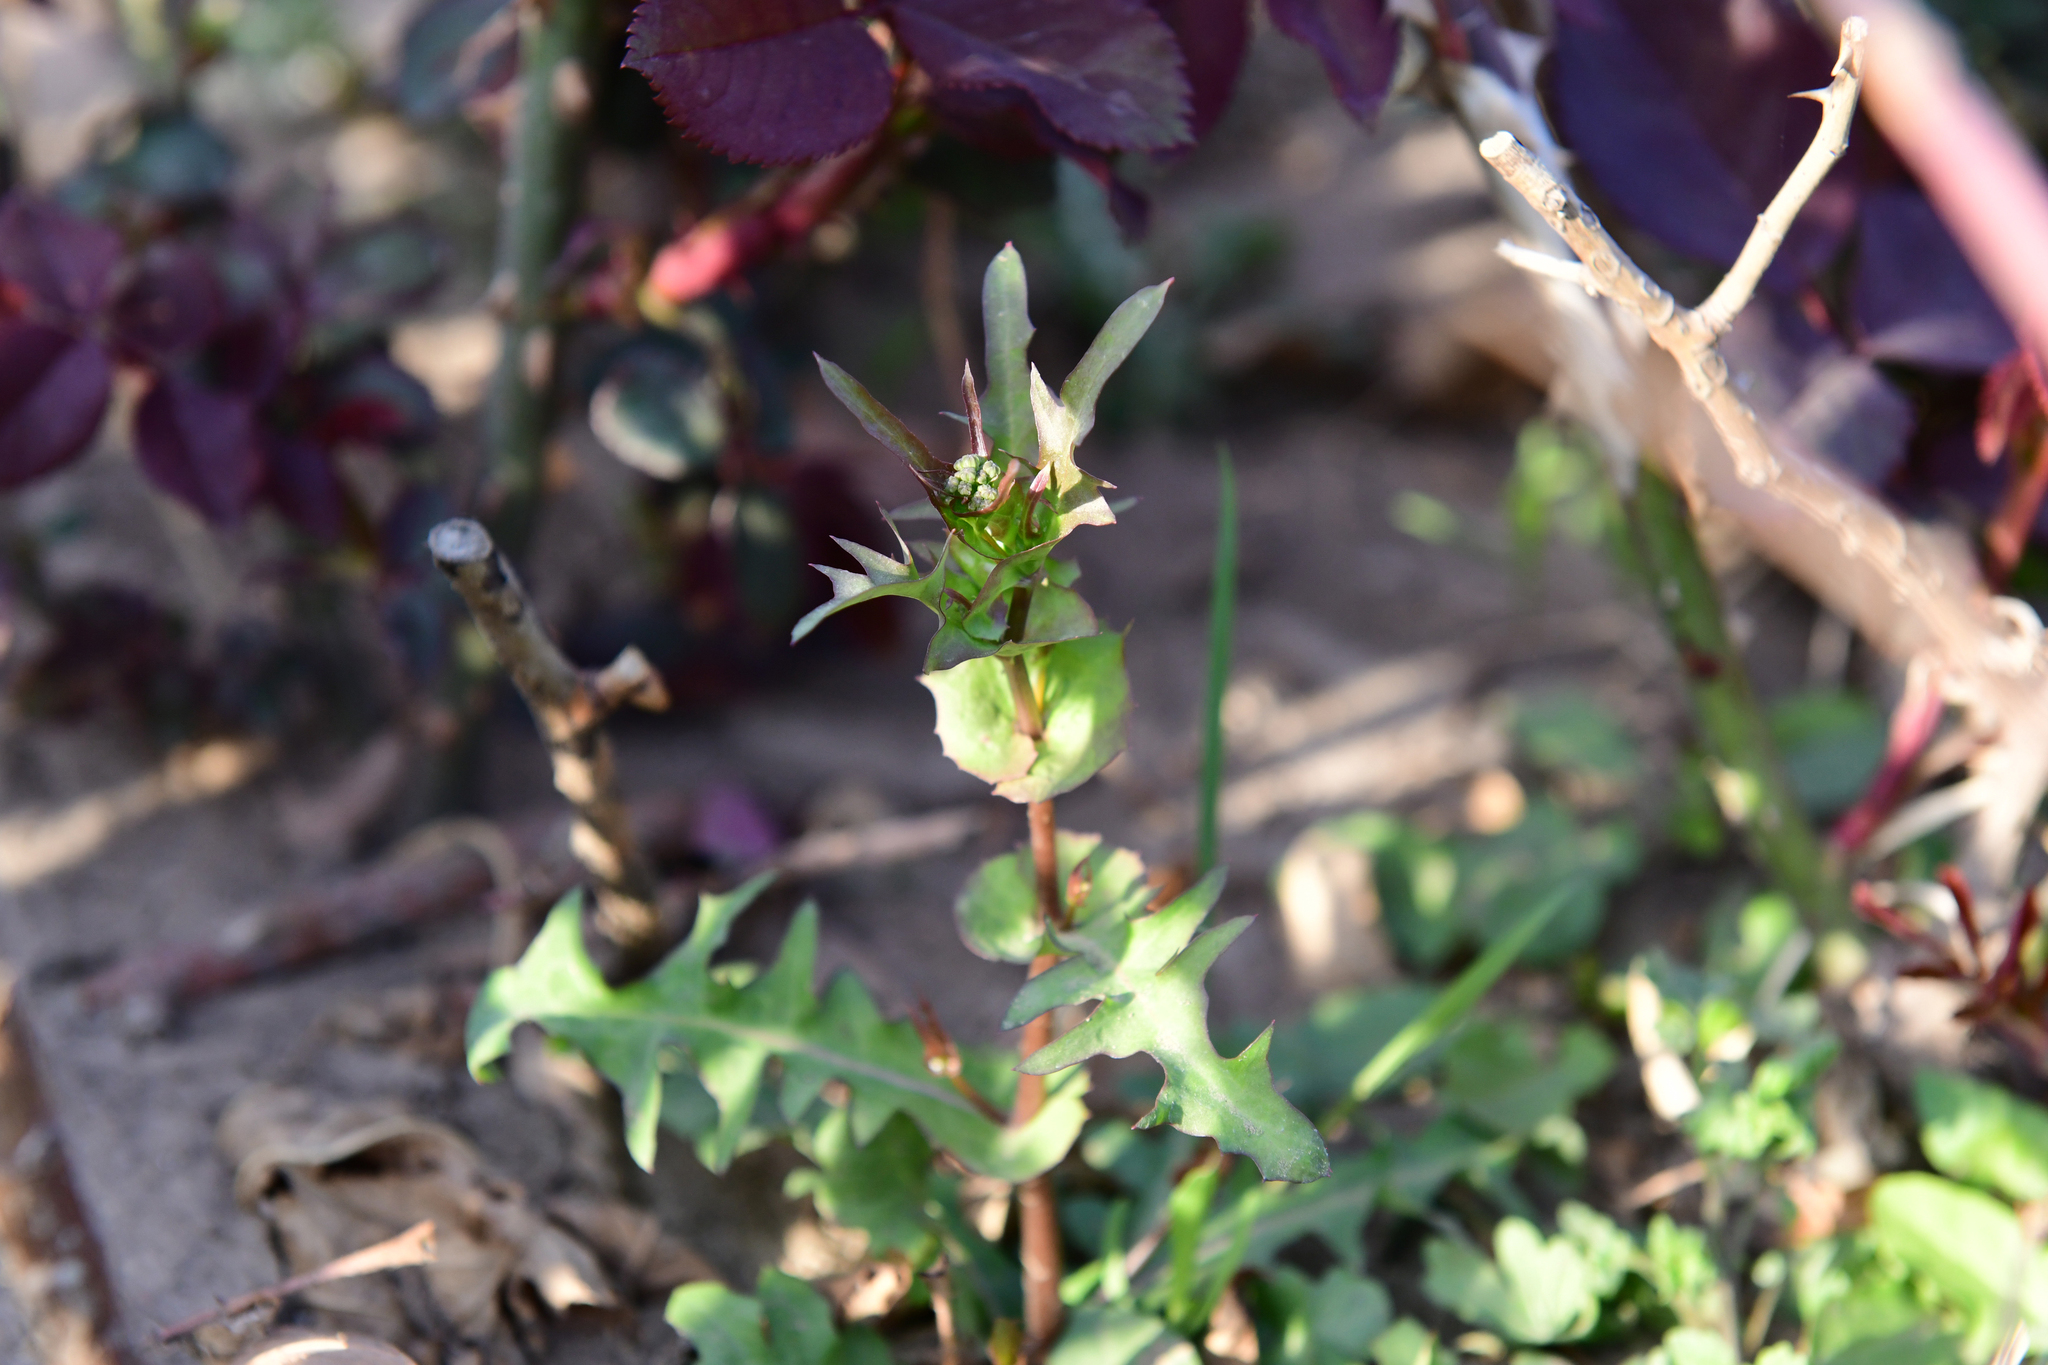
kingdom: Plantae
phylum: Tracheophyta
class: Magnoliopsida
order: Asterales
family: Asteraceae
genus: Crepidiastrum
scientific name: Crepidiastrum sonchifolium
